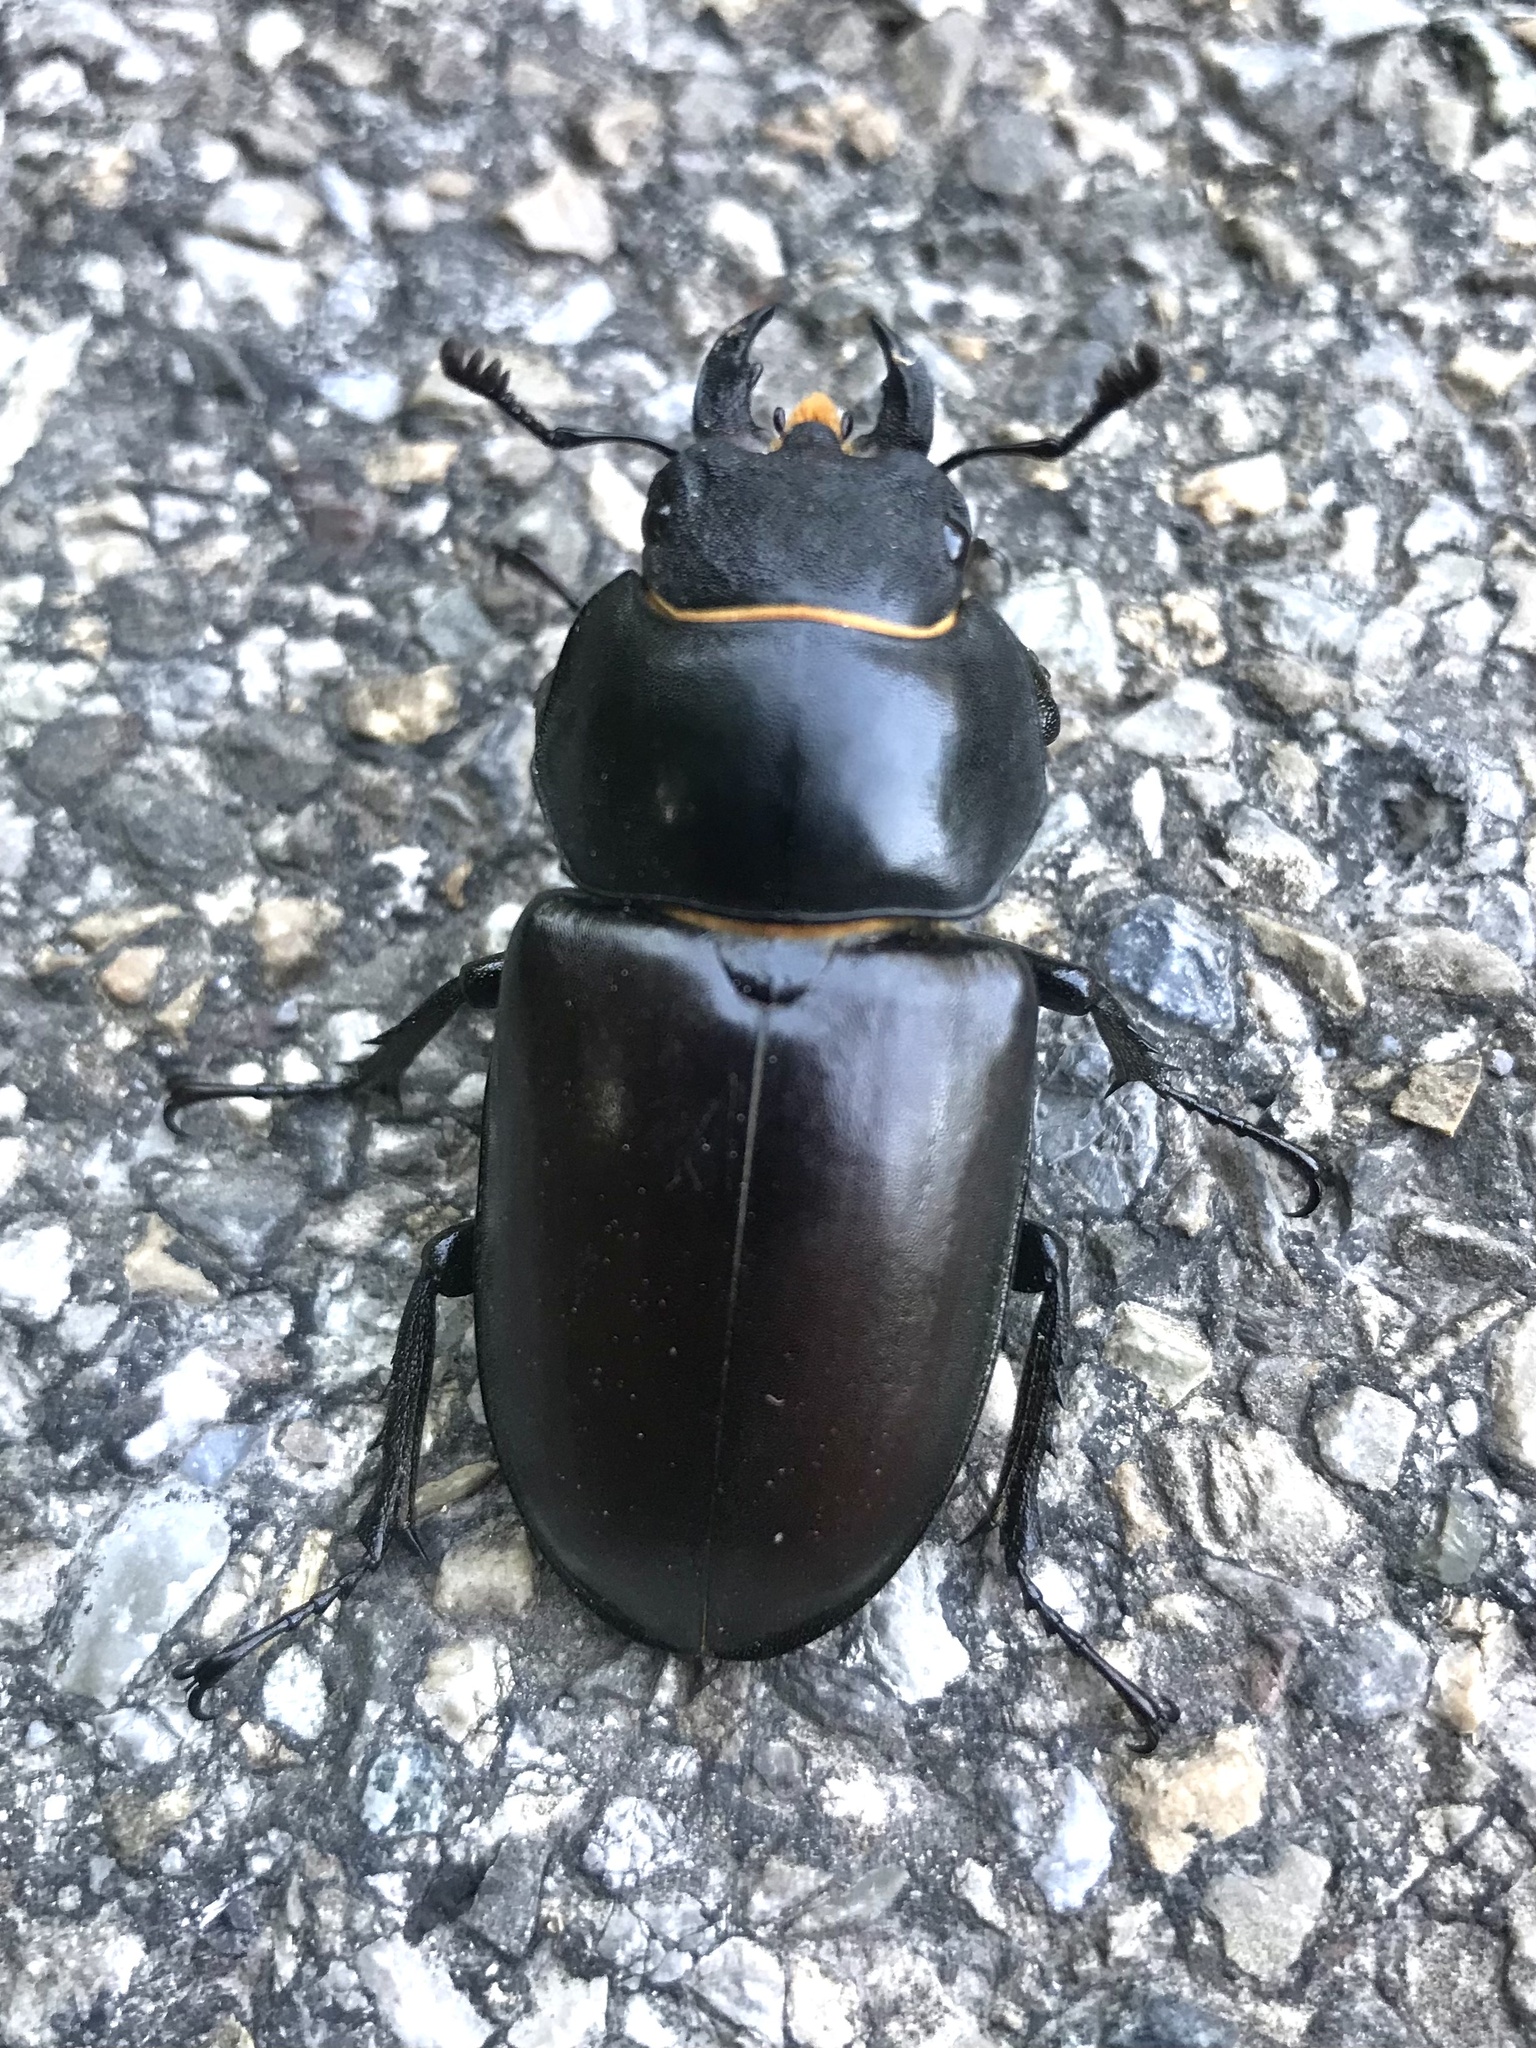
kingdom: Animalia
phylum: Arthropoda
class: Insecta
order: Coleoptera
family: Lucanidae
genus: Lucanus
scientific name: Lucanus cervus
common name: Stag beetle
